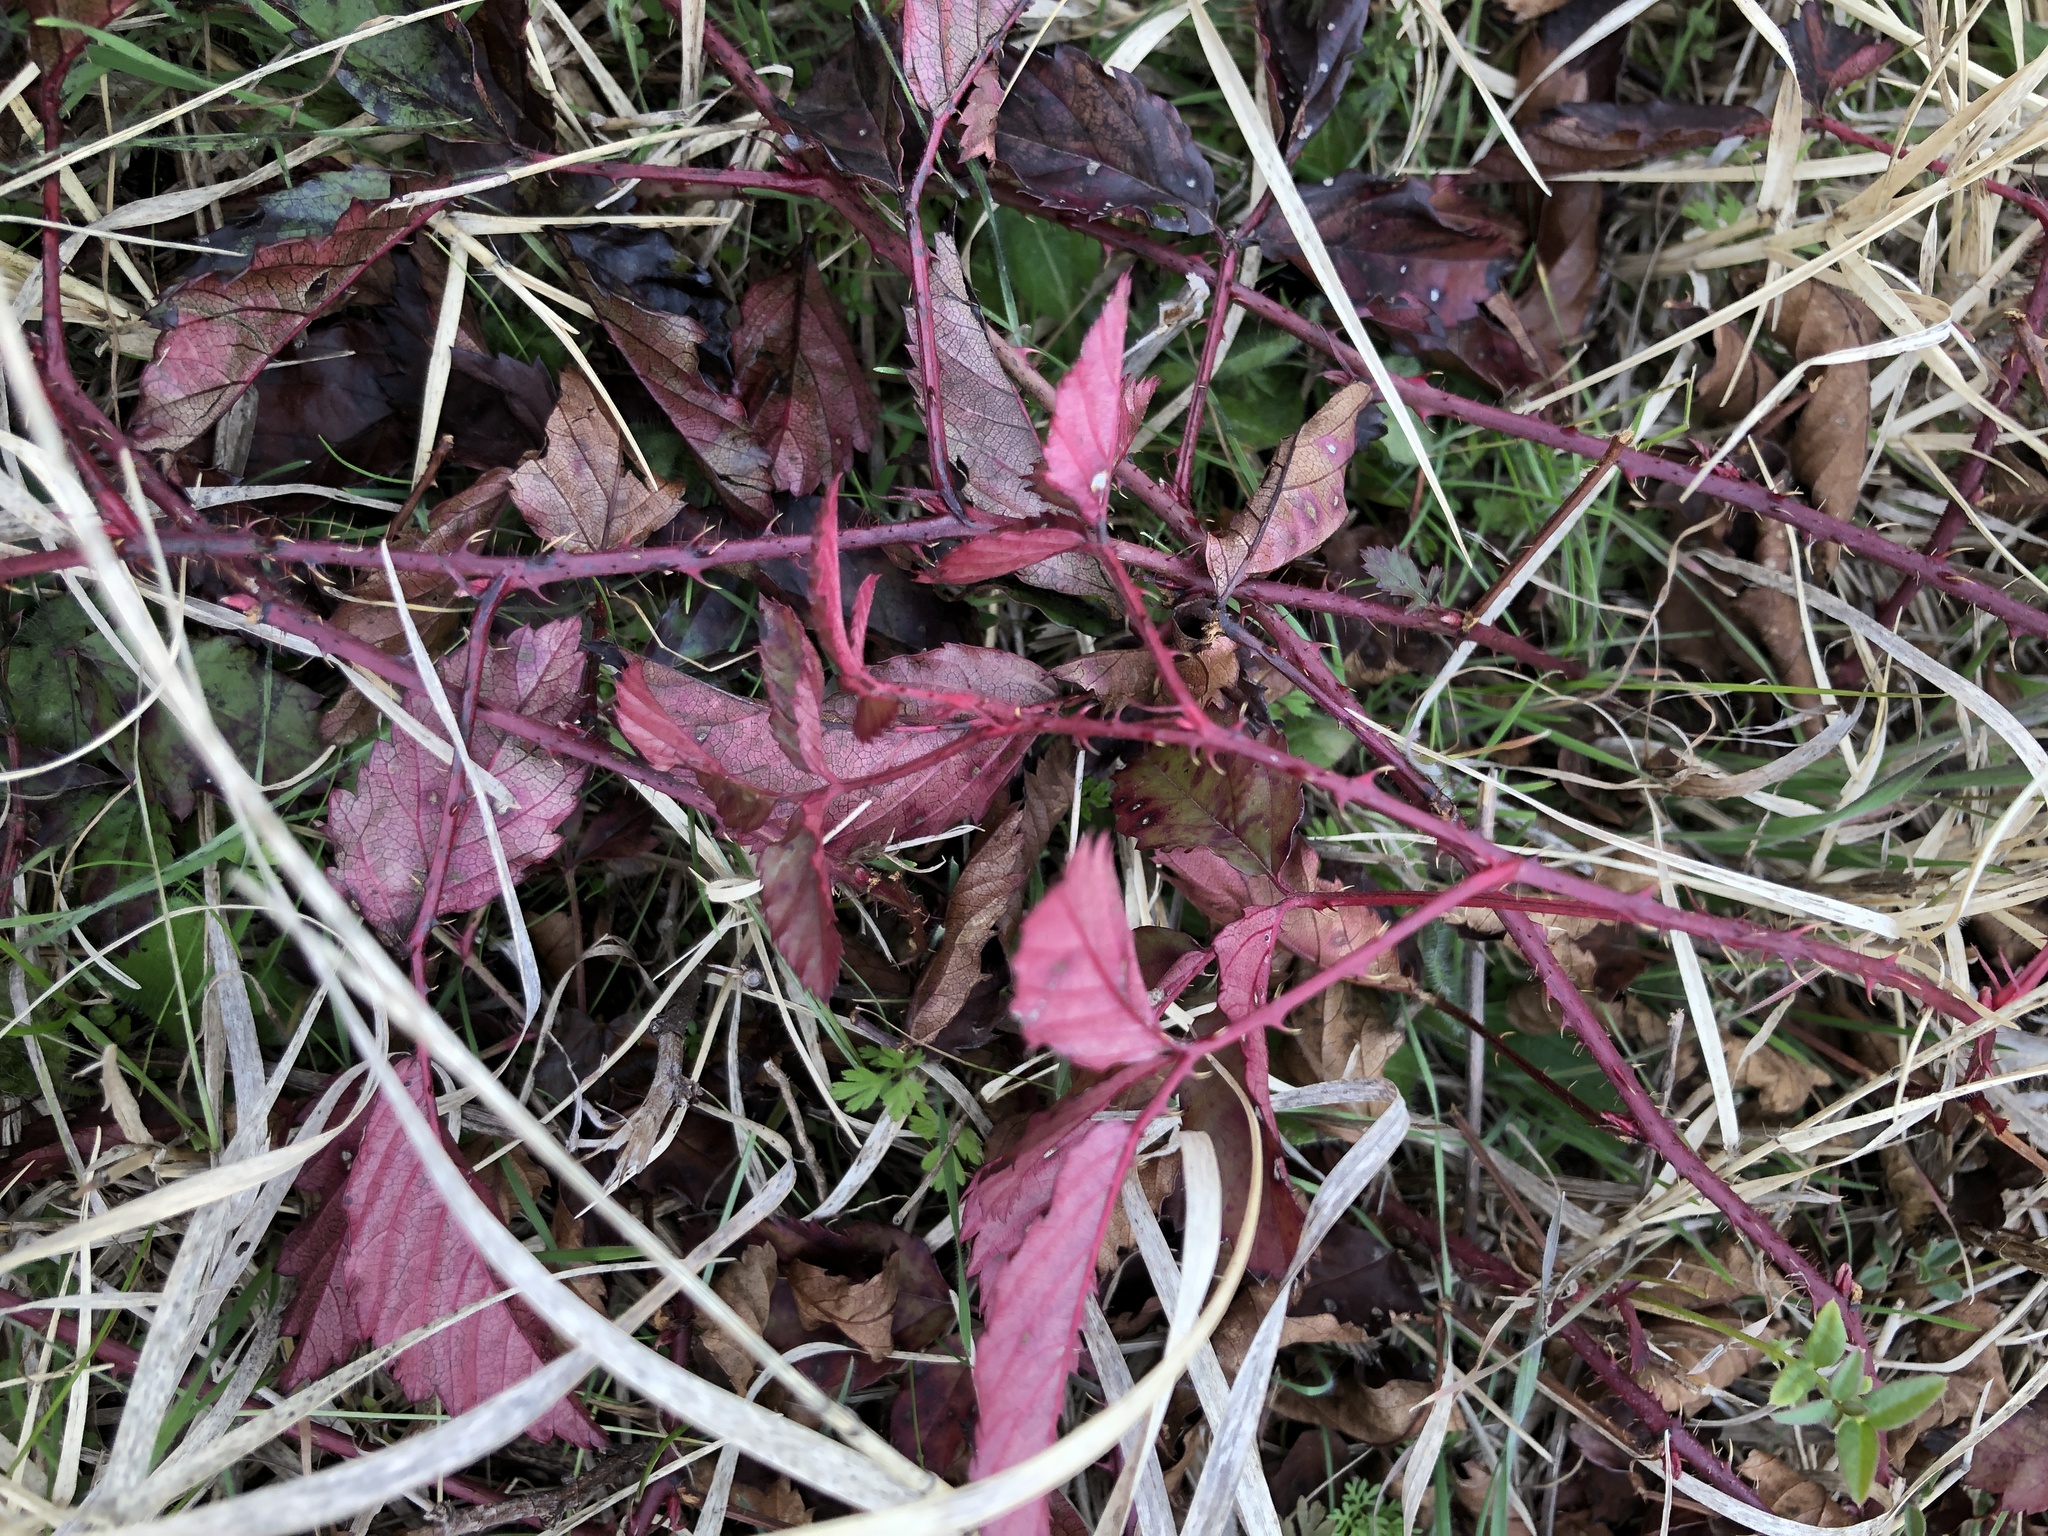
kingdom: Plantae
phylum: Tracheophyta
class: Magnoliopsida
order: Rosales
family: Rosaceae
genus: Rubus
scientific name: Rubus trivialis
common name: Southern dewberry
